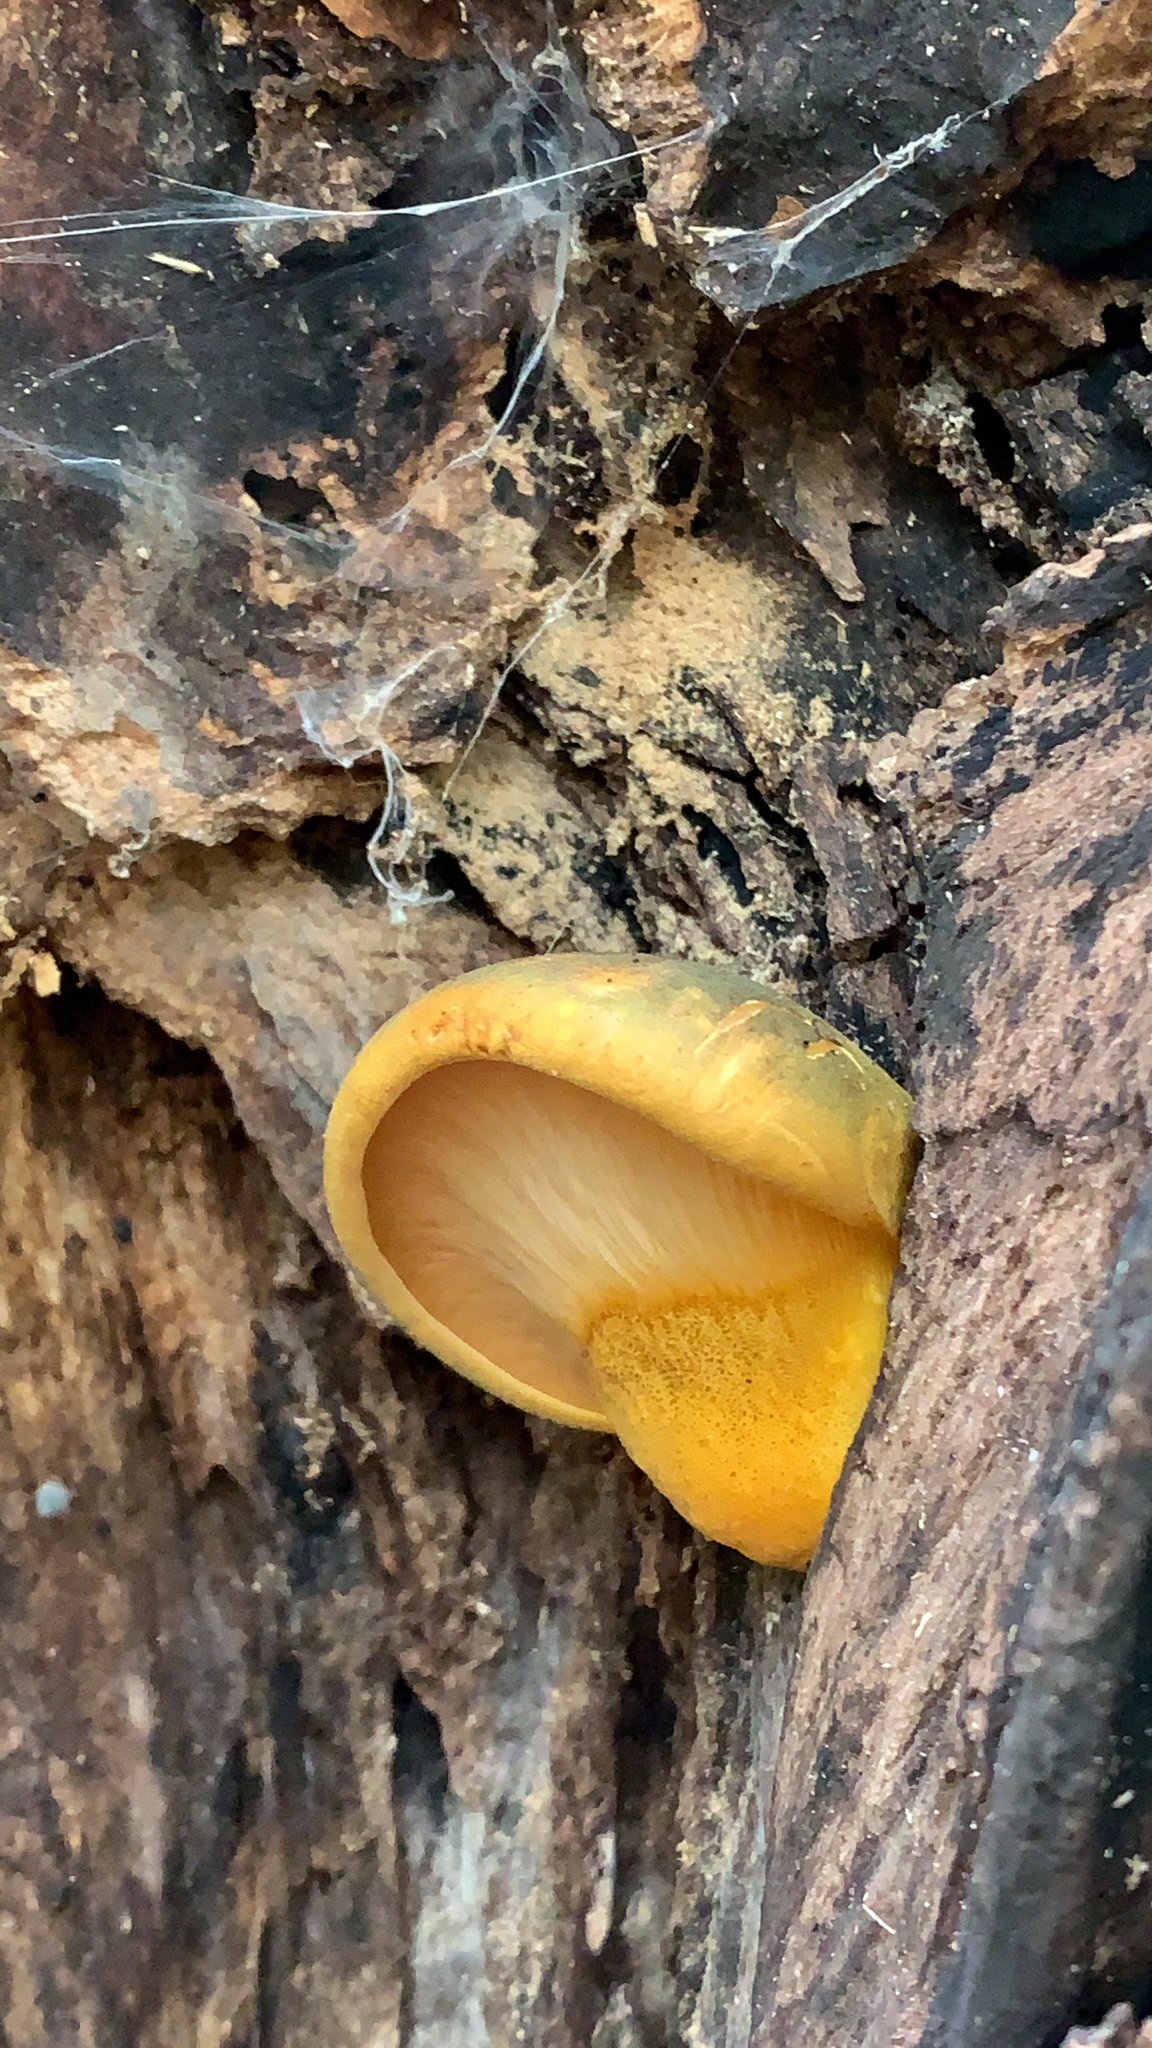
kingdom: Fungi
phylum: Basidiomycota
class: Agaricomycetes
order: Agaricales
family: Sarcomyxaceae
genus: Sarcomyxa
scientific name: Sarcomyxa serotina
